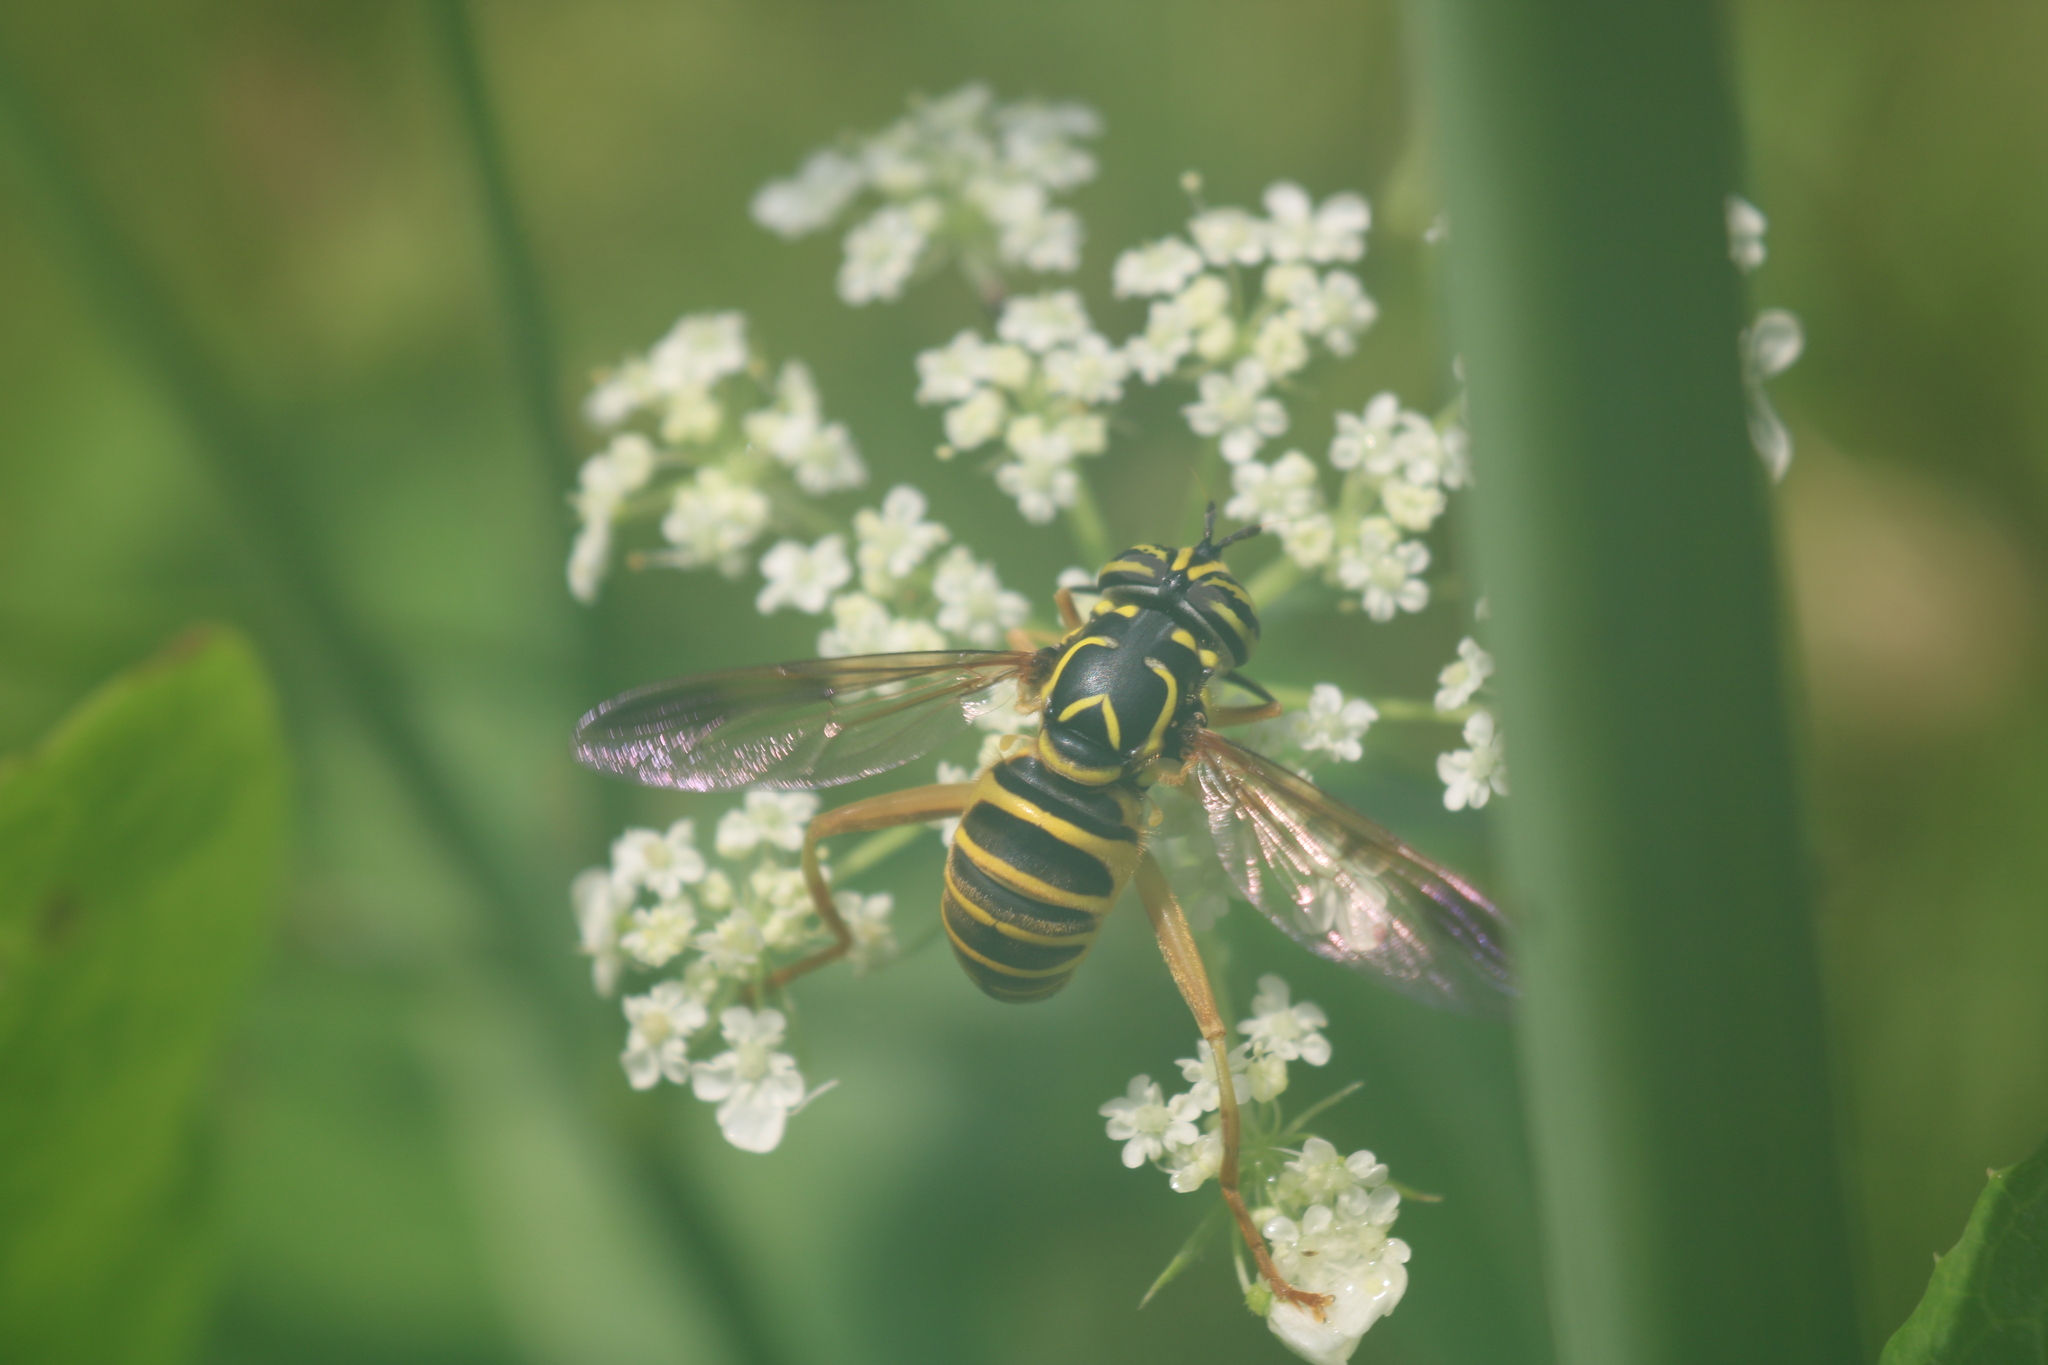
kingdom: Animalia
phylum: Arthropoda
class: Insecta
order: Diptera
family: Syrphidae
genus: Spilomyia
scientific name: Spilomyia longicornis
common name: Eastern hornet fly
